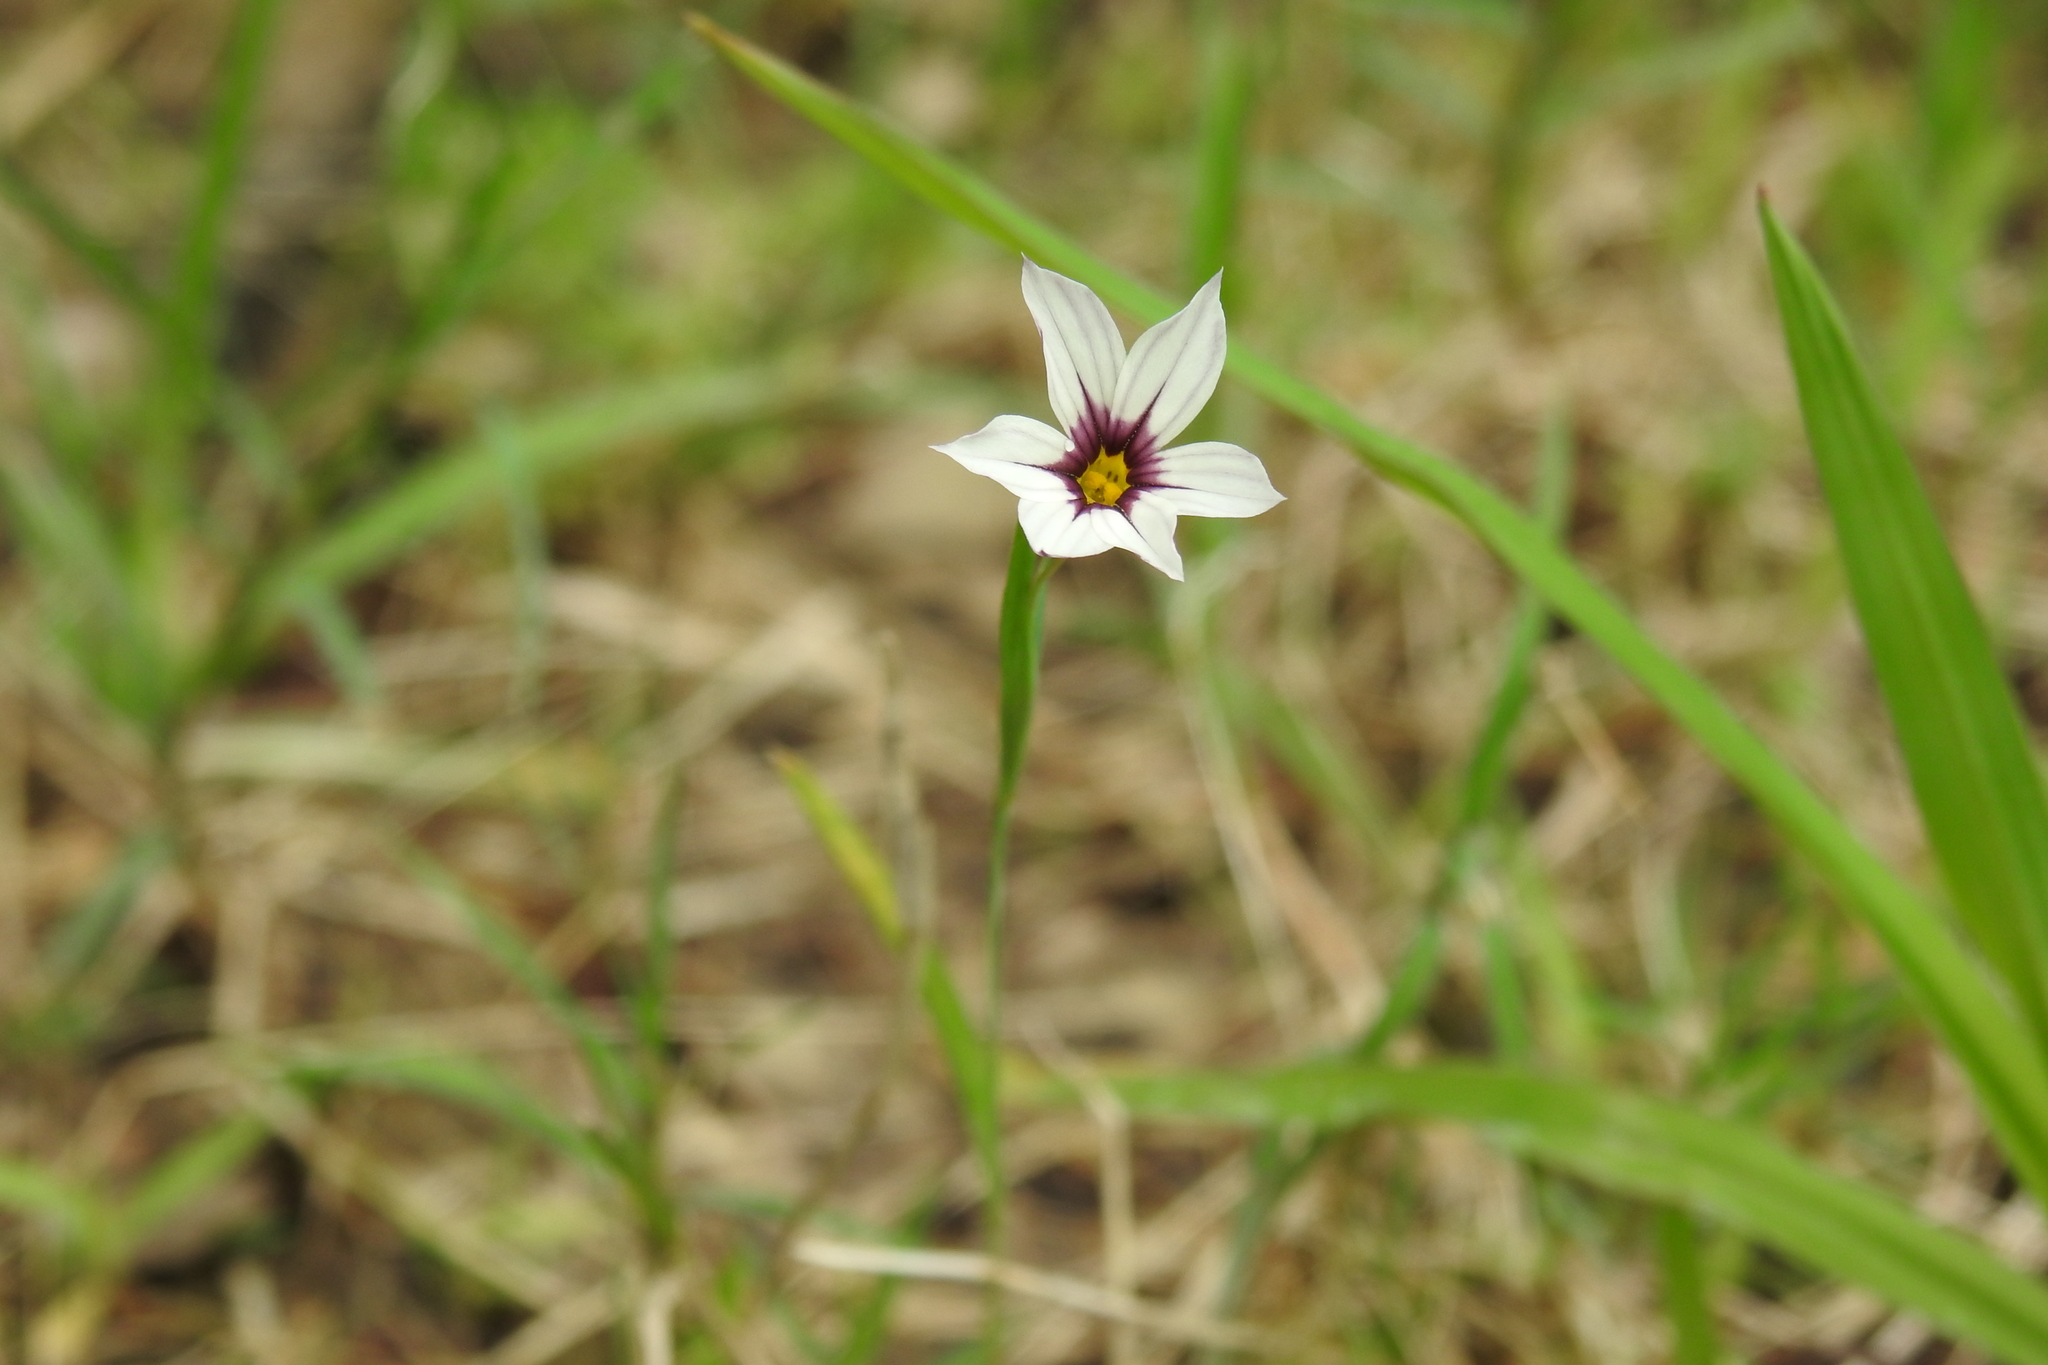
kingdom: Plantae
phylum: Tracheophyta
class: Liliopsida
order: Asparagales
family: Iridaceae
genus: Sisyrinchium
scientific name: Sisyrinchium micranthum
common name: Bermuda pigroot
